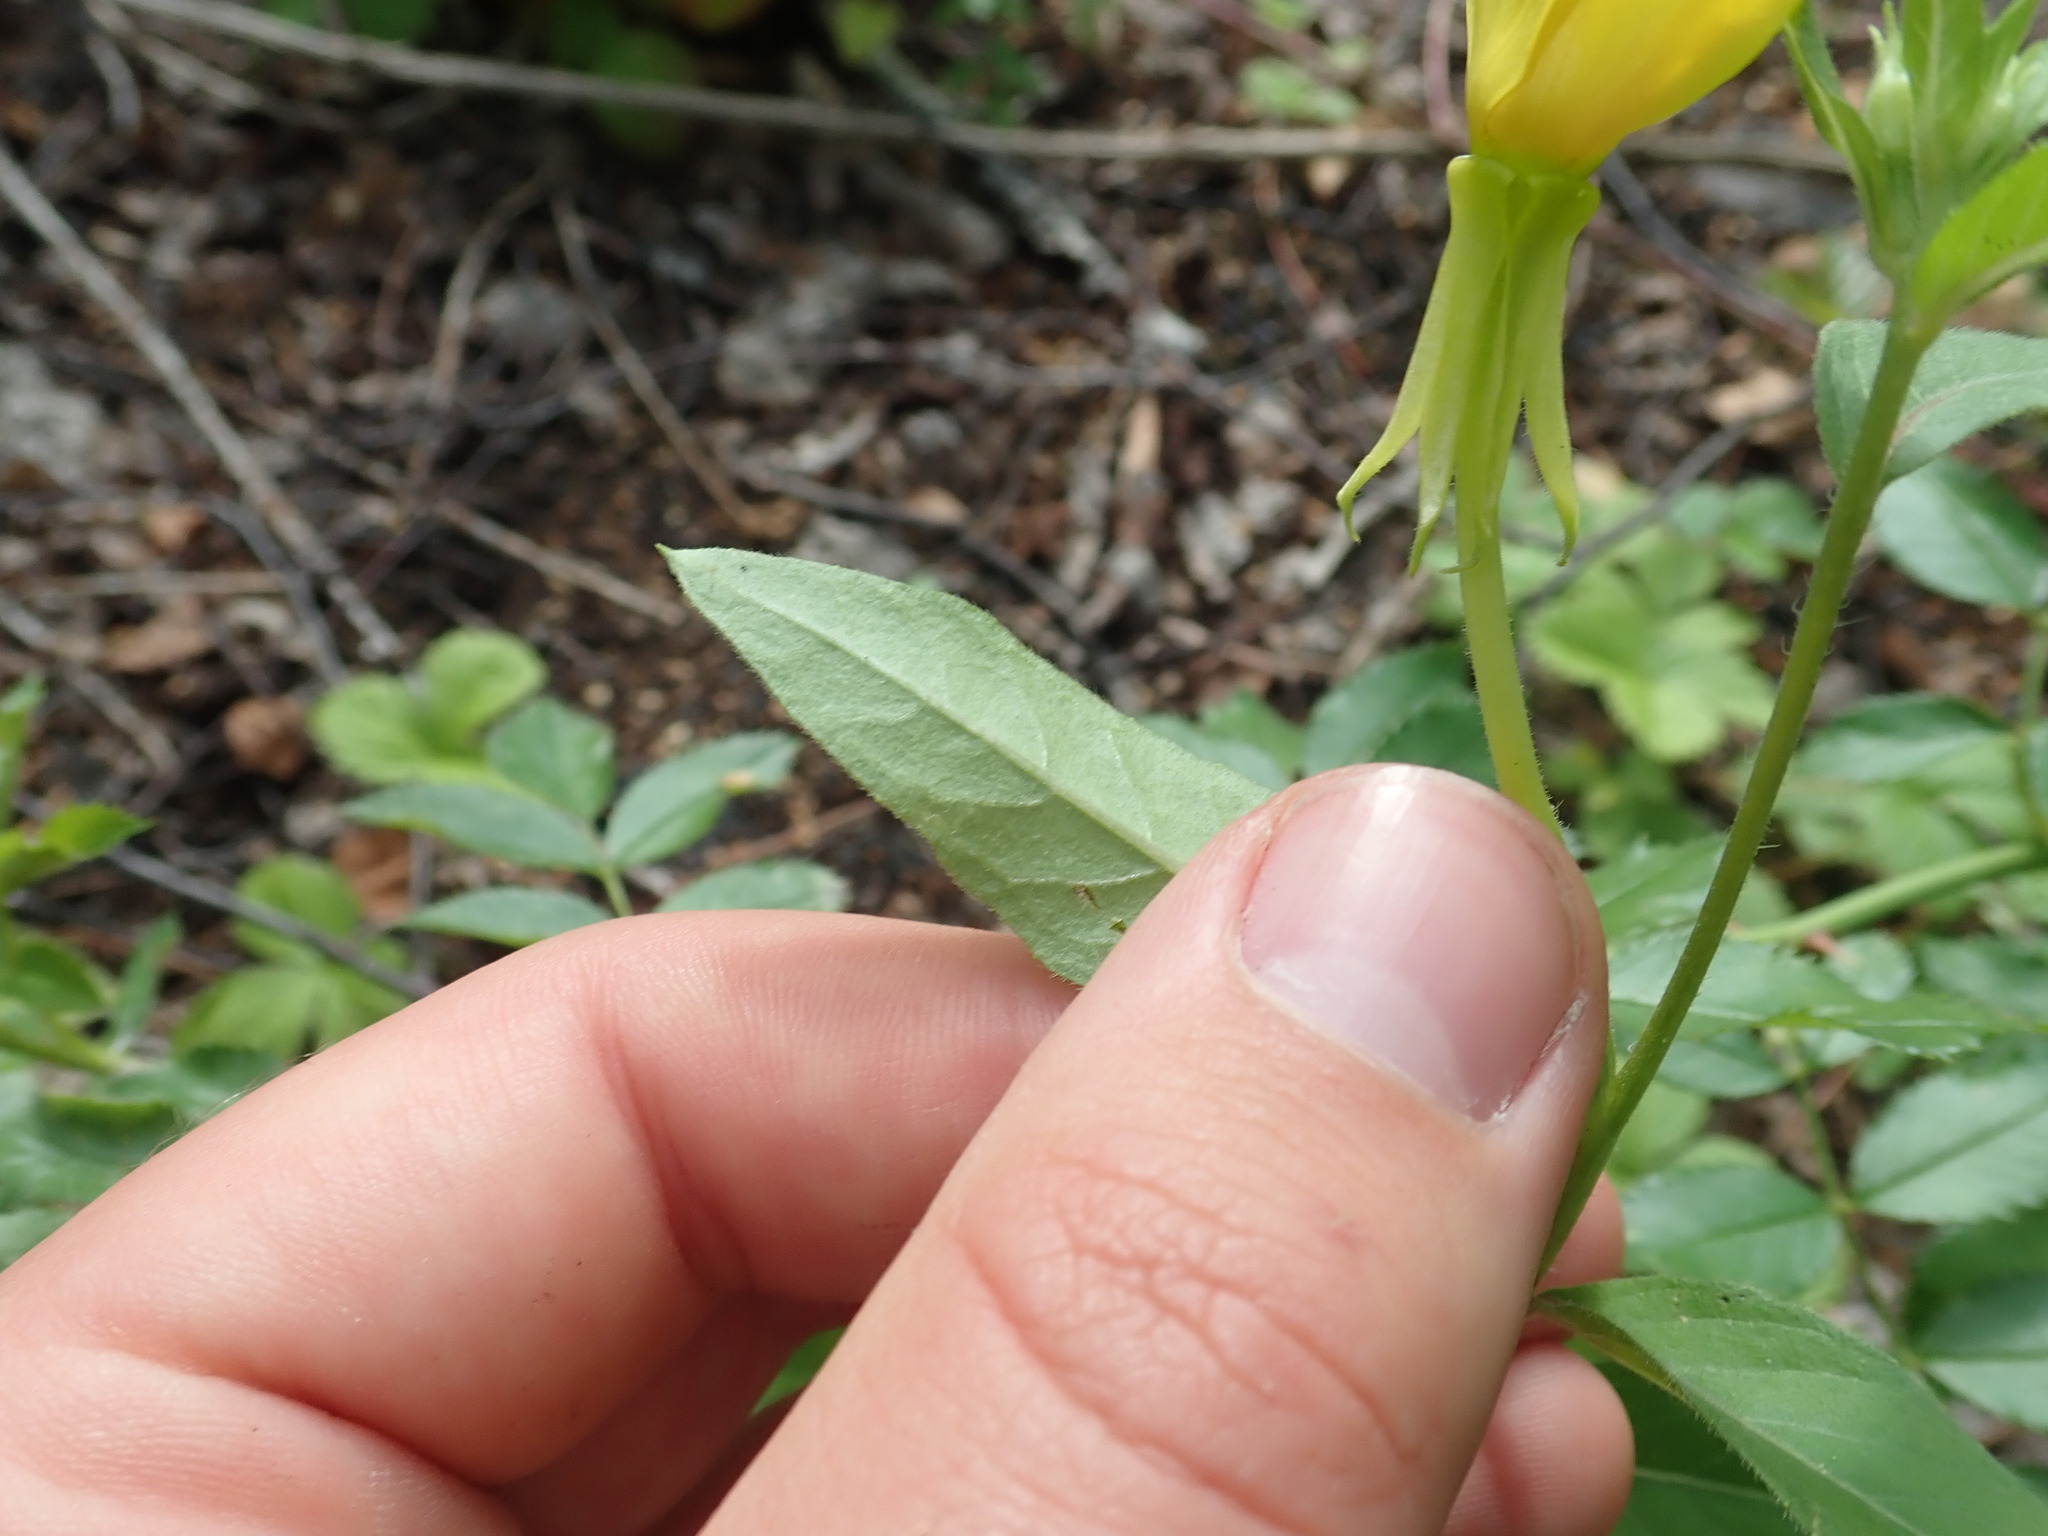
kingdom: Plantae
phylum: Tracheophyta
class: Magnoliopsida
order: Myrtales
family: Onagraceae
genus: Oenothera
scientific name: Oenothera parviflora
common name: Least evening-primrose
